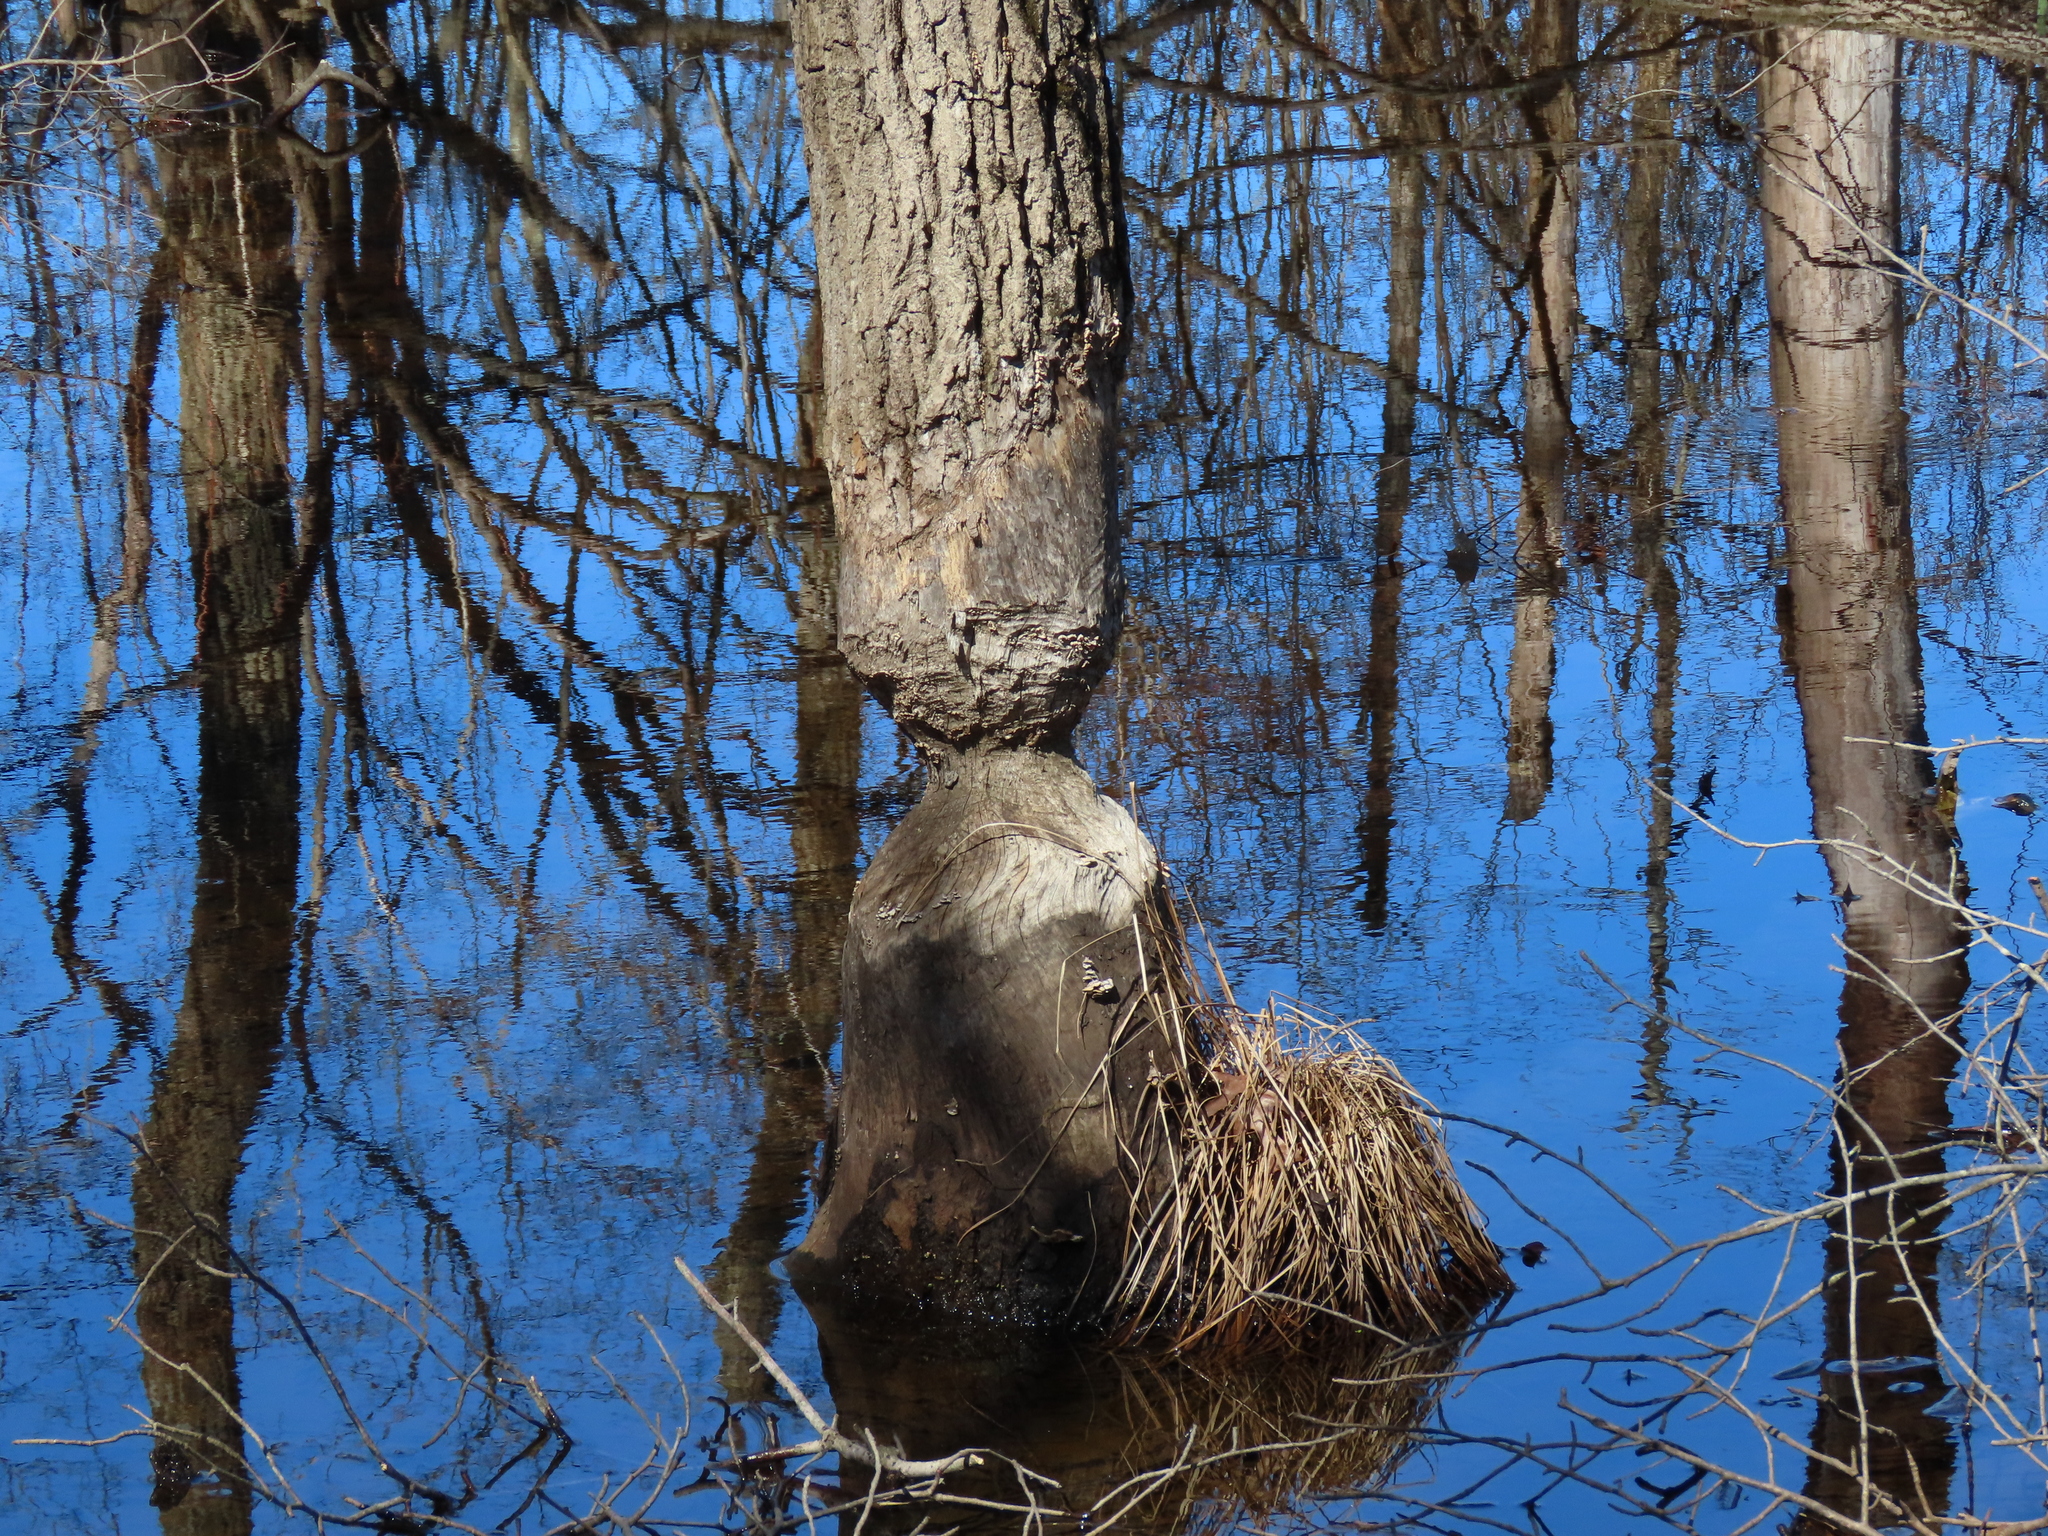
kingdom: Animalia
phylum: Chordata
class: Mammalia
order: Rodentia
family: Castoridae
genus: Castor
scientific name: Castor canadensis
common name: American beaver
